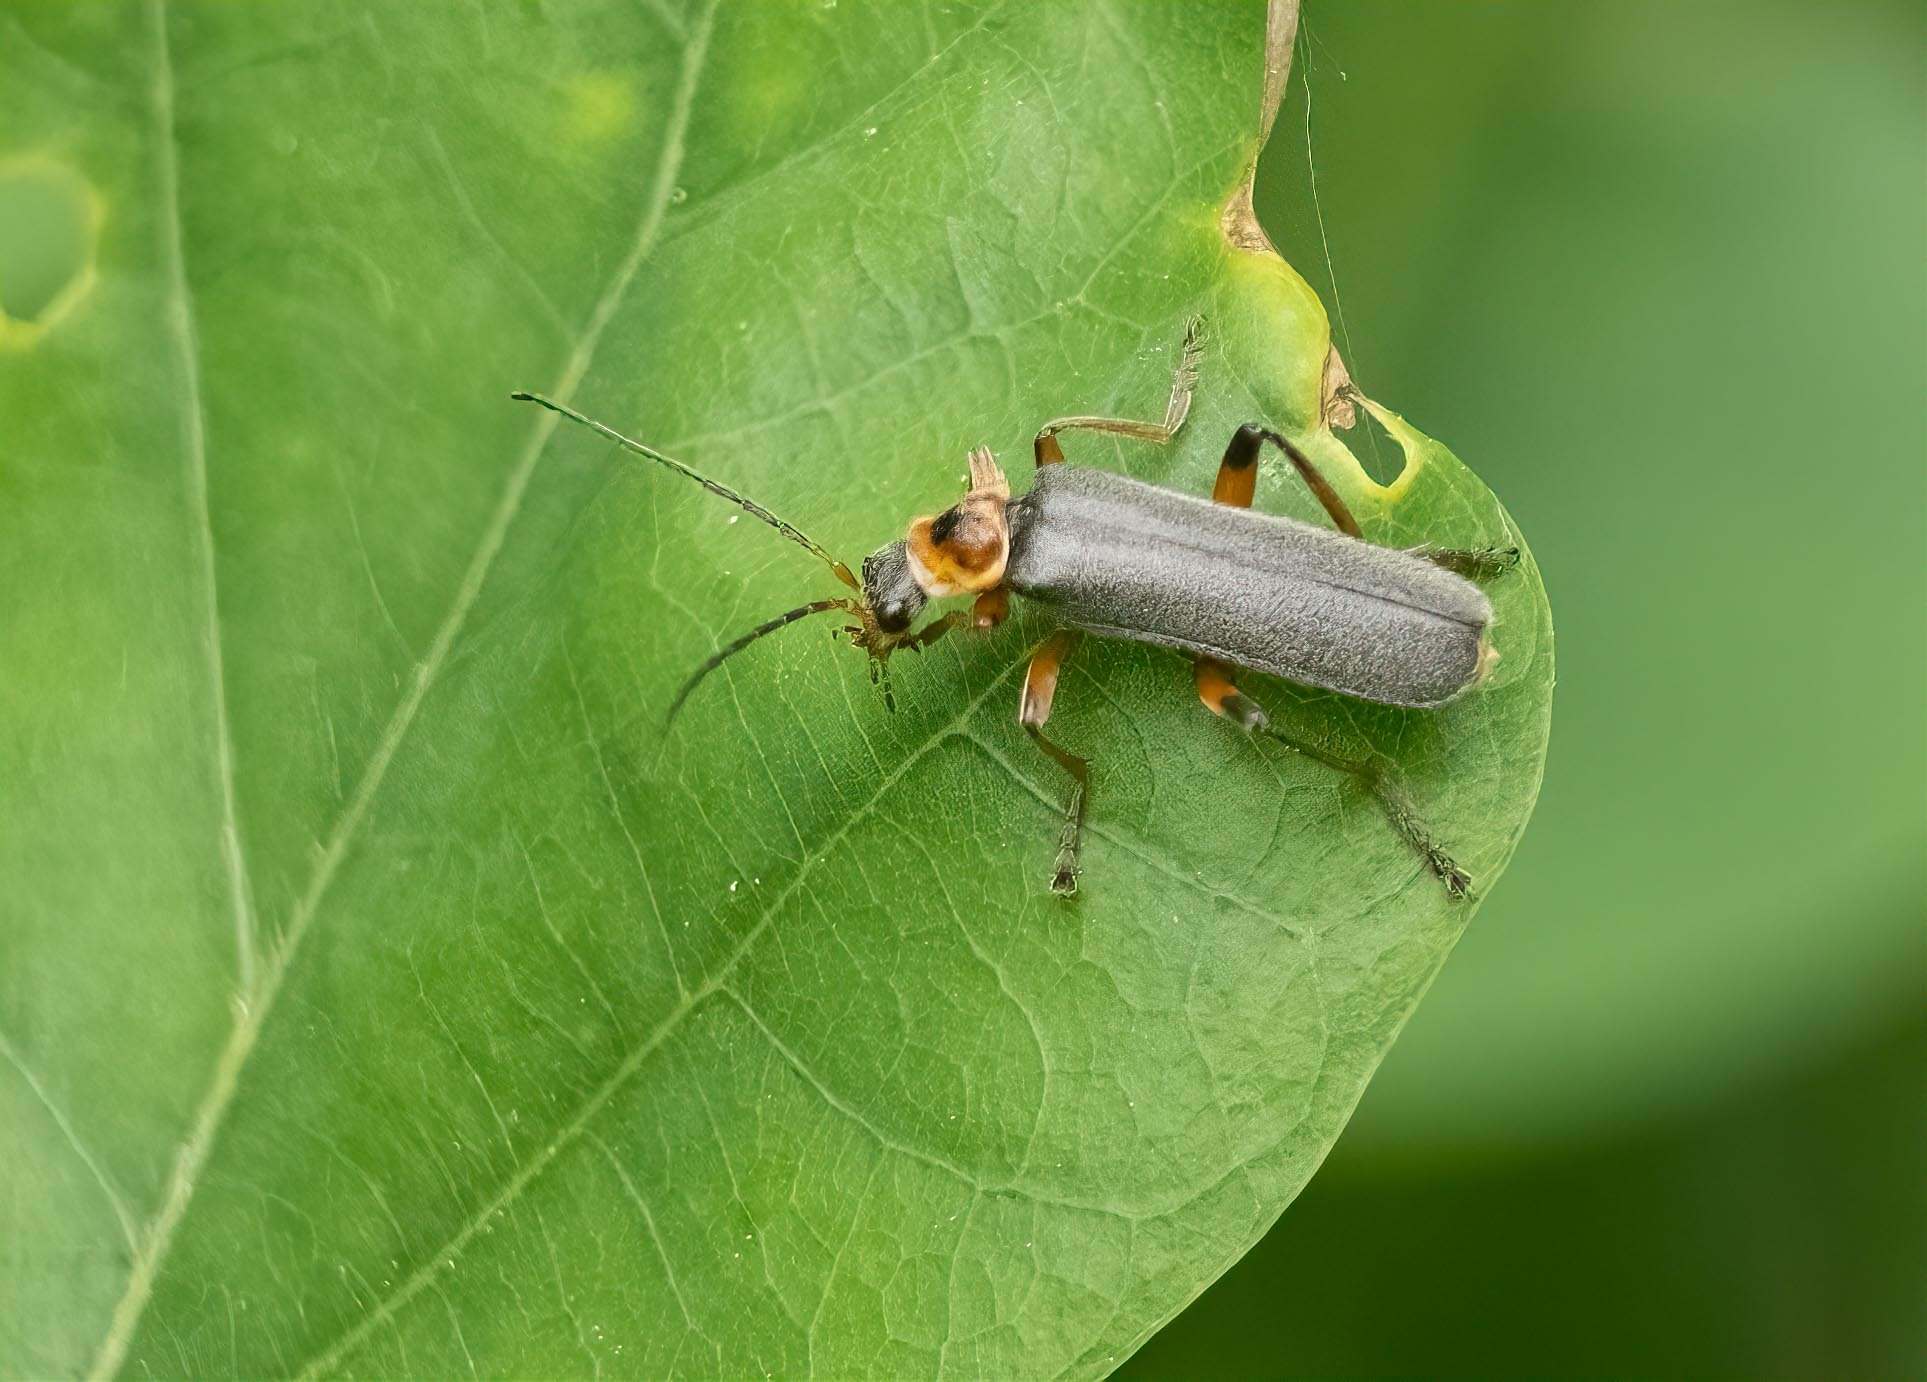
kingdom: Animalia
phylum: Arthropoda
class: Insecta
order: Coleoptera
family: Cantharidae
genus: Cantharis
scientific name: Cantharis nigricans
